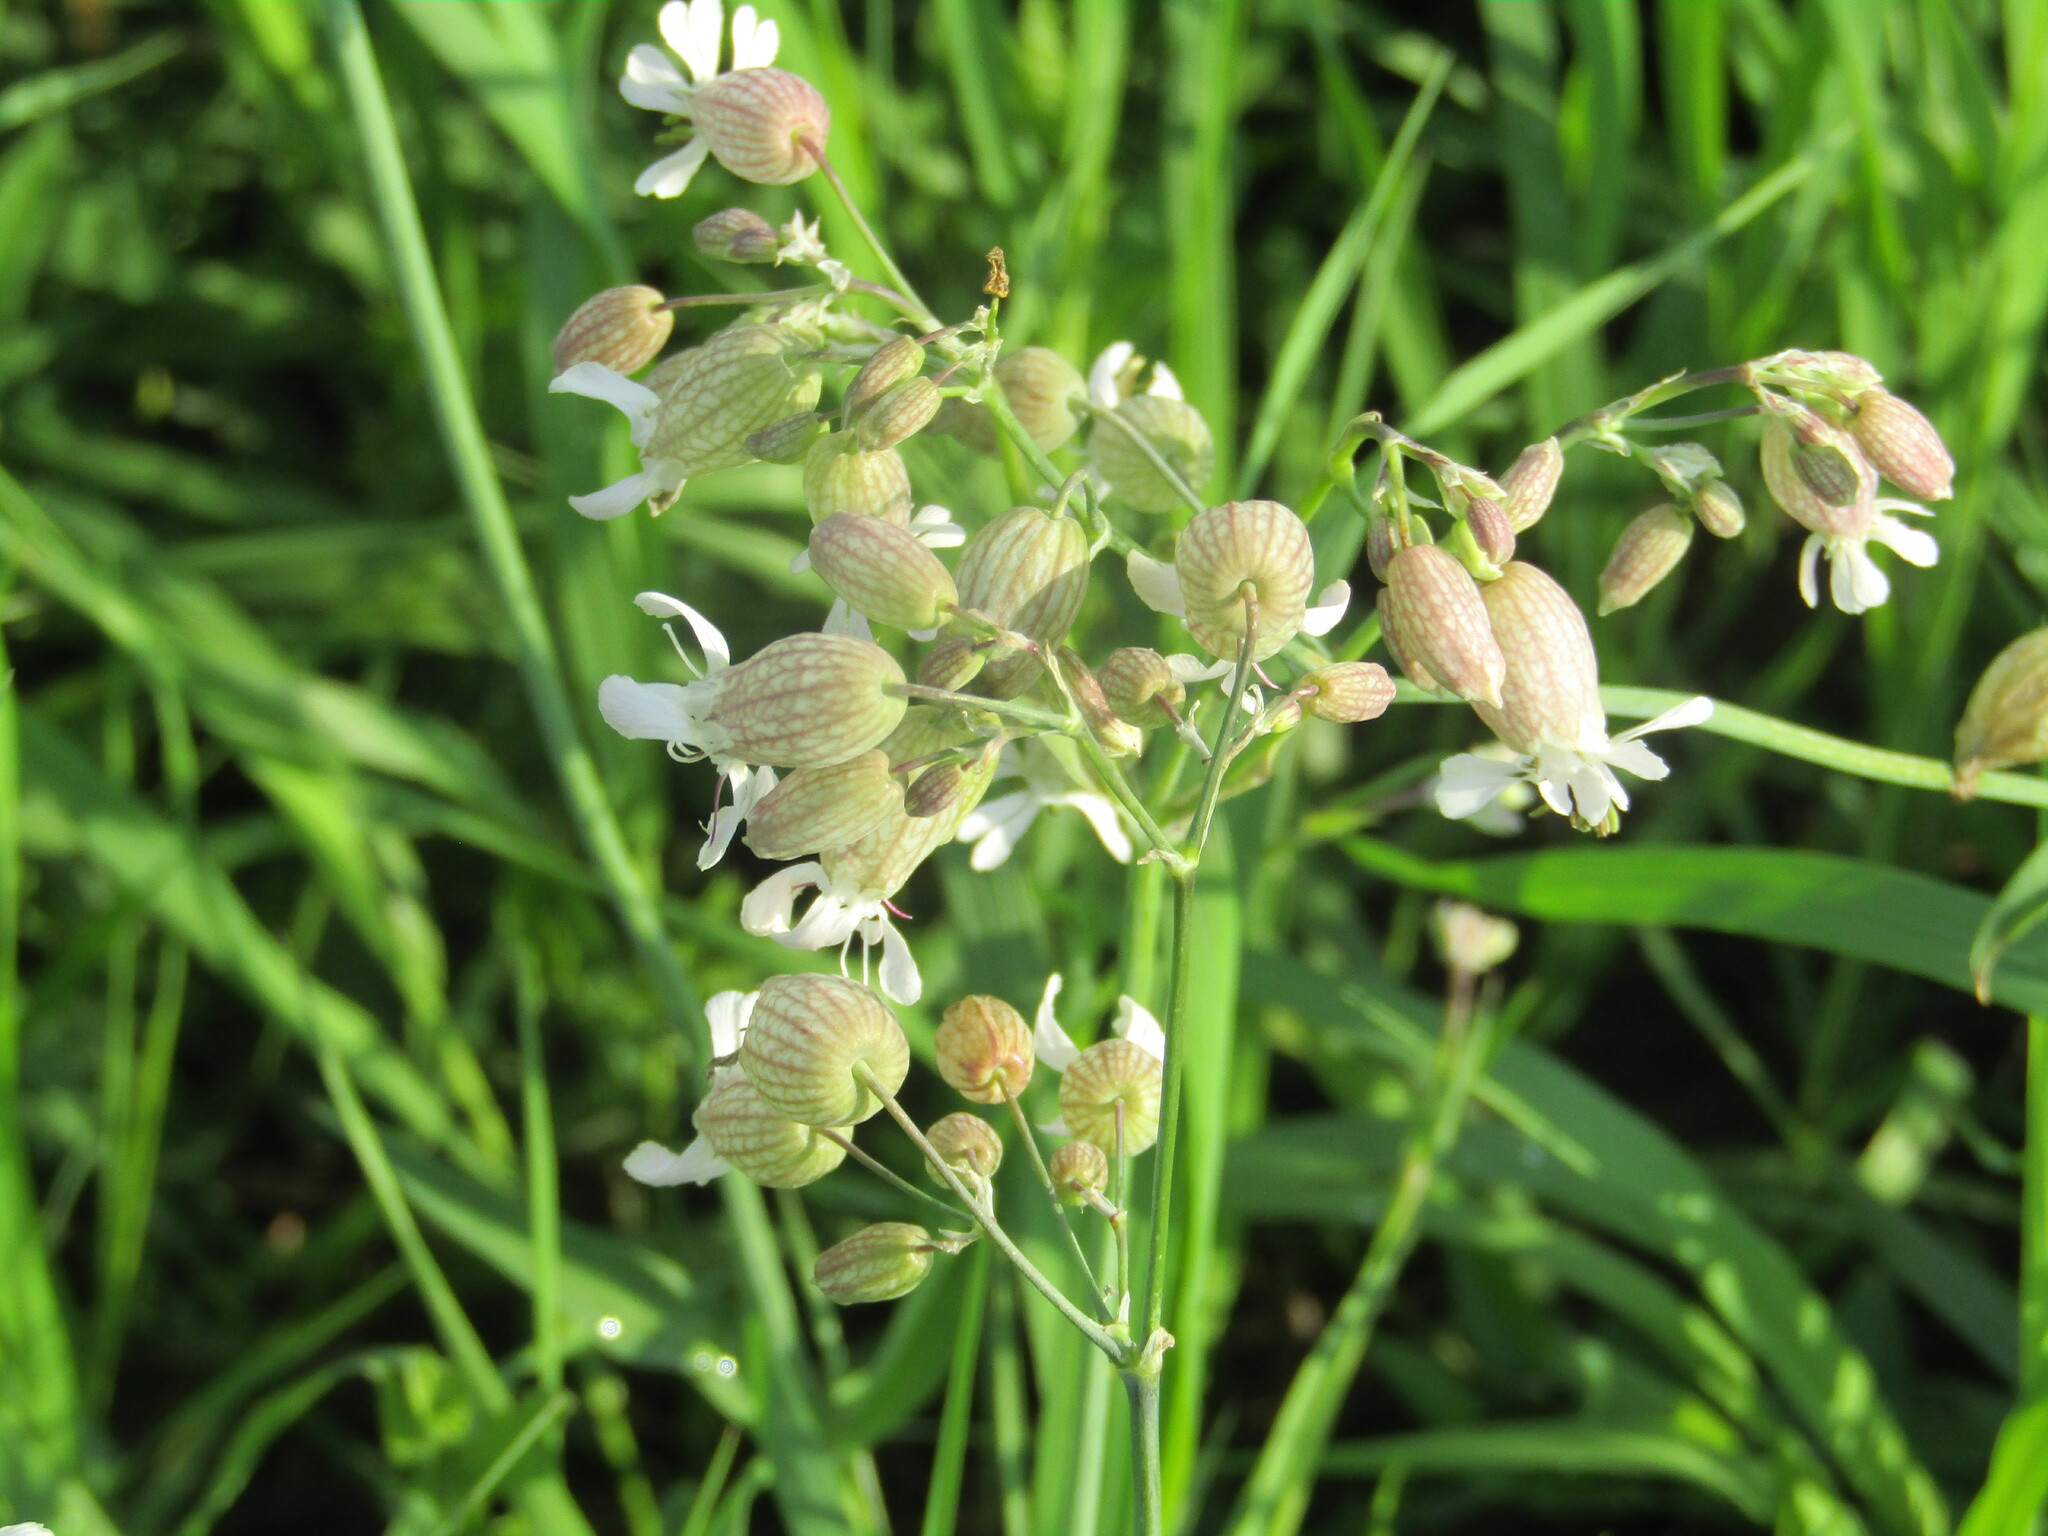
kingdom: Plantae
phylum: Tracheophyta
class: Magnoliopsida
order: Caryophyllales
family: Caryophyllaceae
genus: Silene
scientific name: Silene vulgaris
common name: Bladder campion
